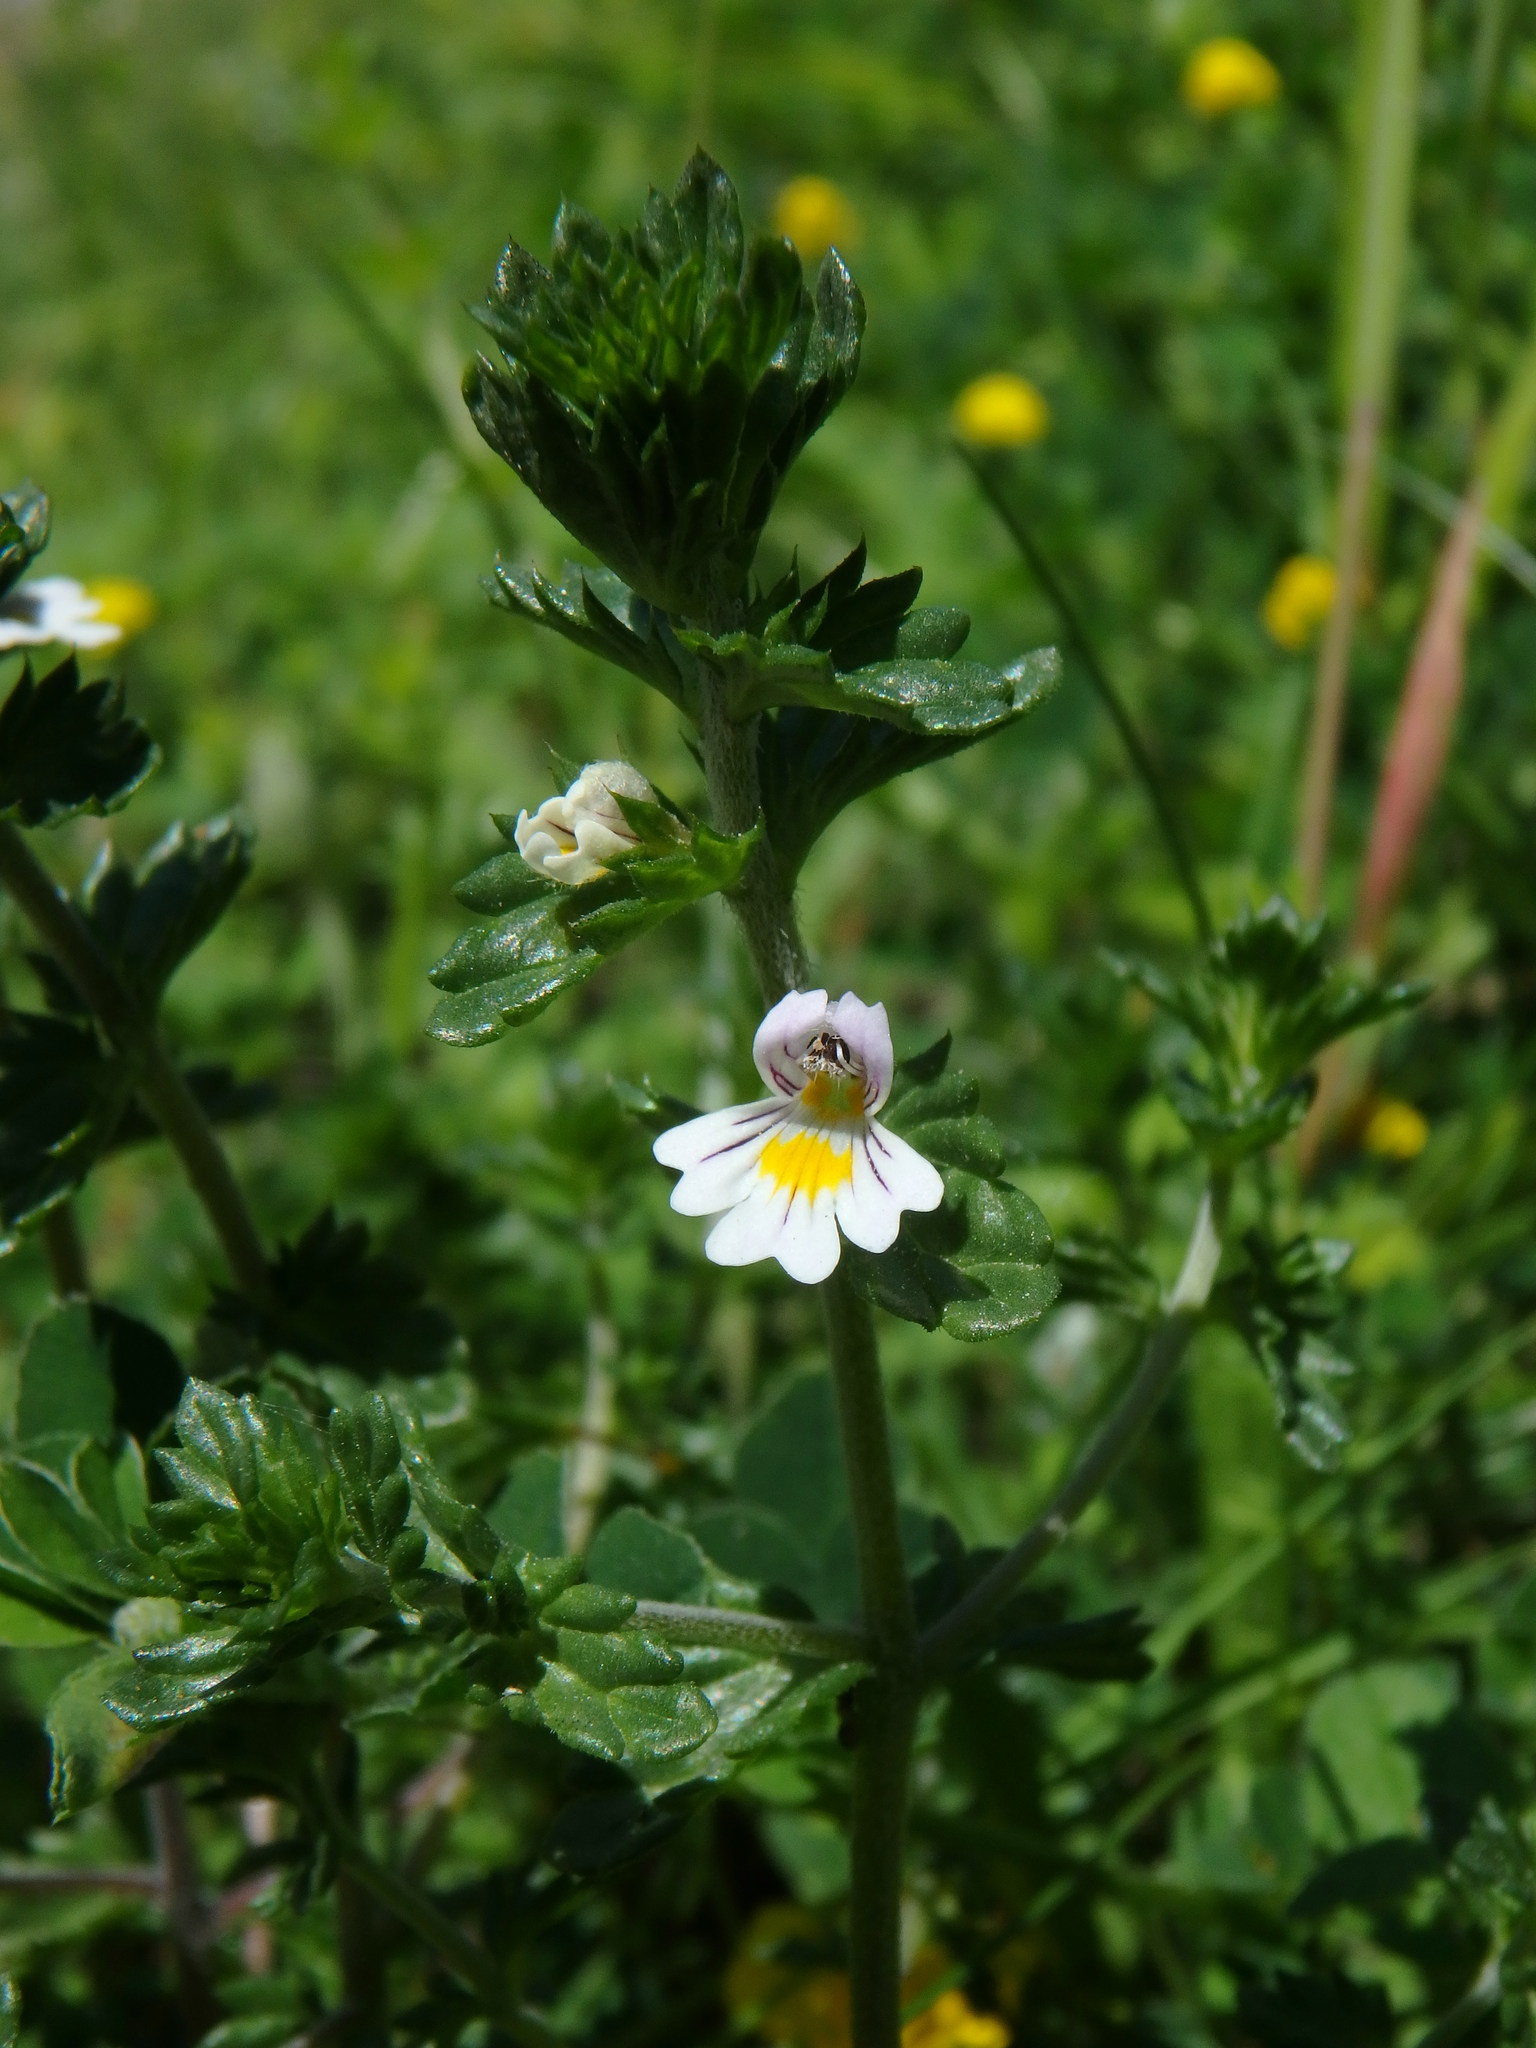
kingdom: Plantae
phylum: Tracheophyta
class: Magnoliopsida
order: Lamiales
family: Orobanchaceae
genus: Euphrasia
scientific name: Euphrasia nemorosa
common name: Common eyebright
